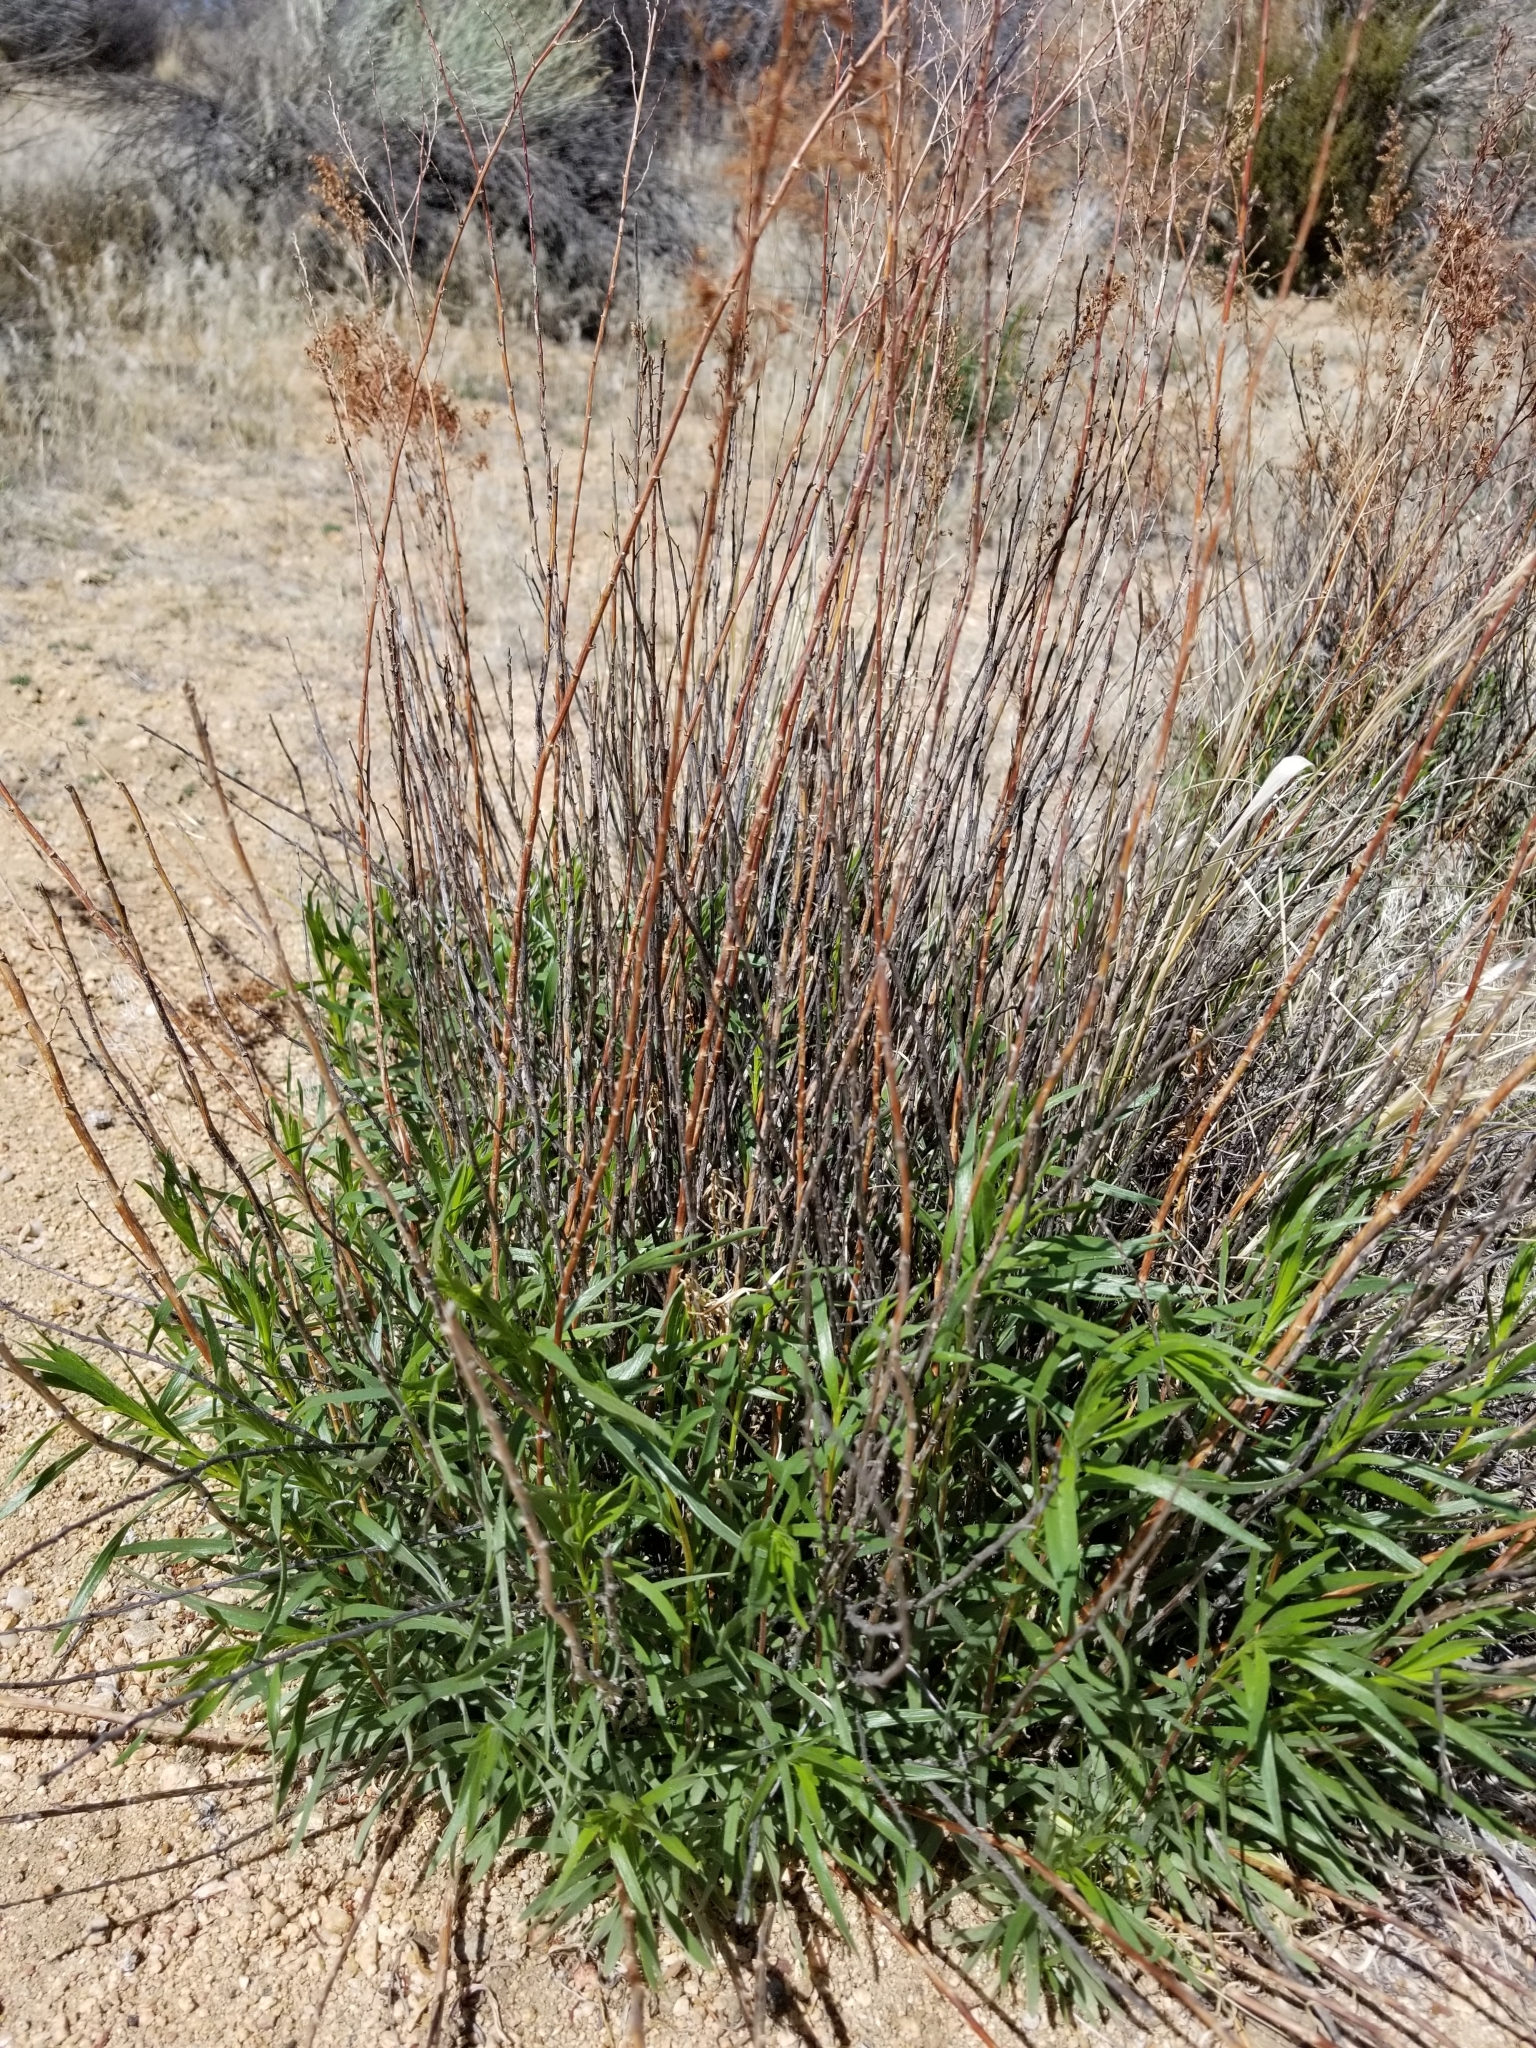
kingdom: Plantae
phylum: Tracheophyta
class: Magnoliopsida
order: Asterales
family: Asteraceae
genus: Artemisia
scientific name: Artemisia dracunculus
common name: Tarragon
